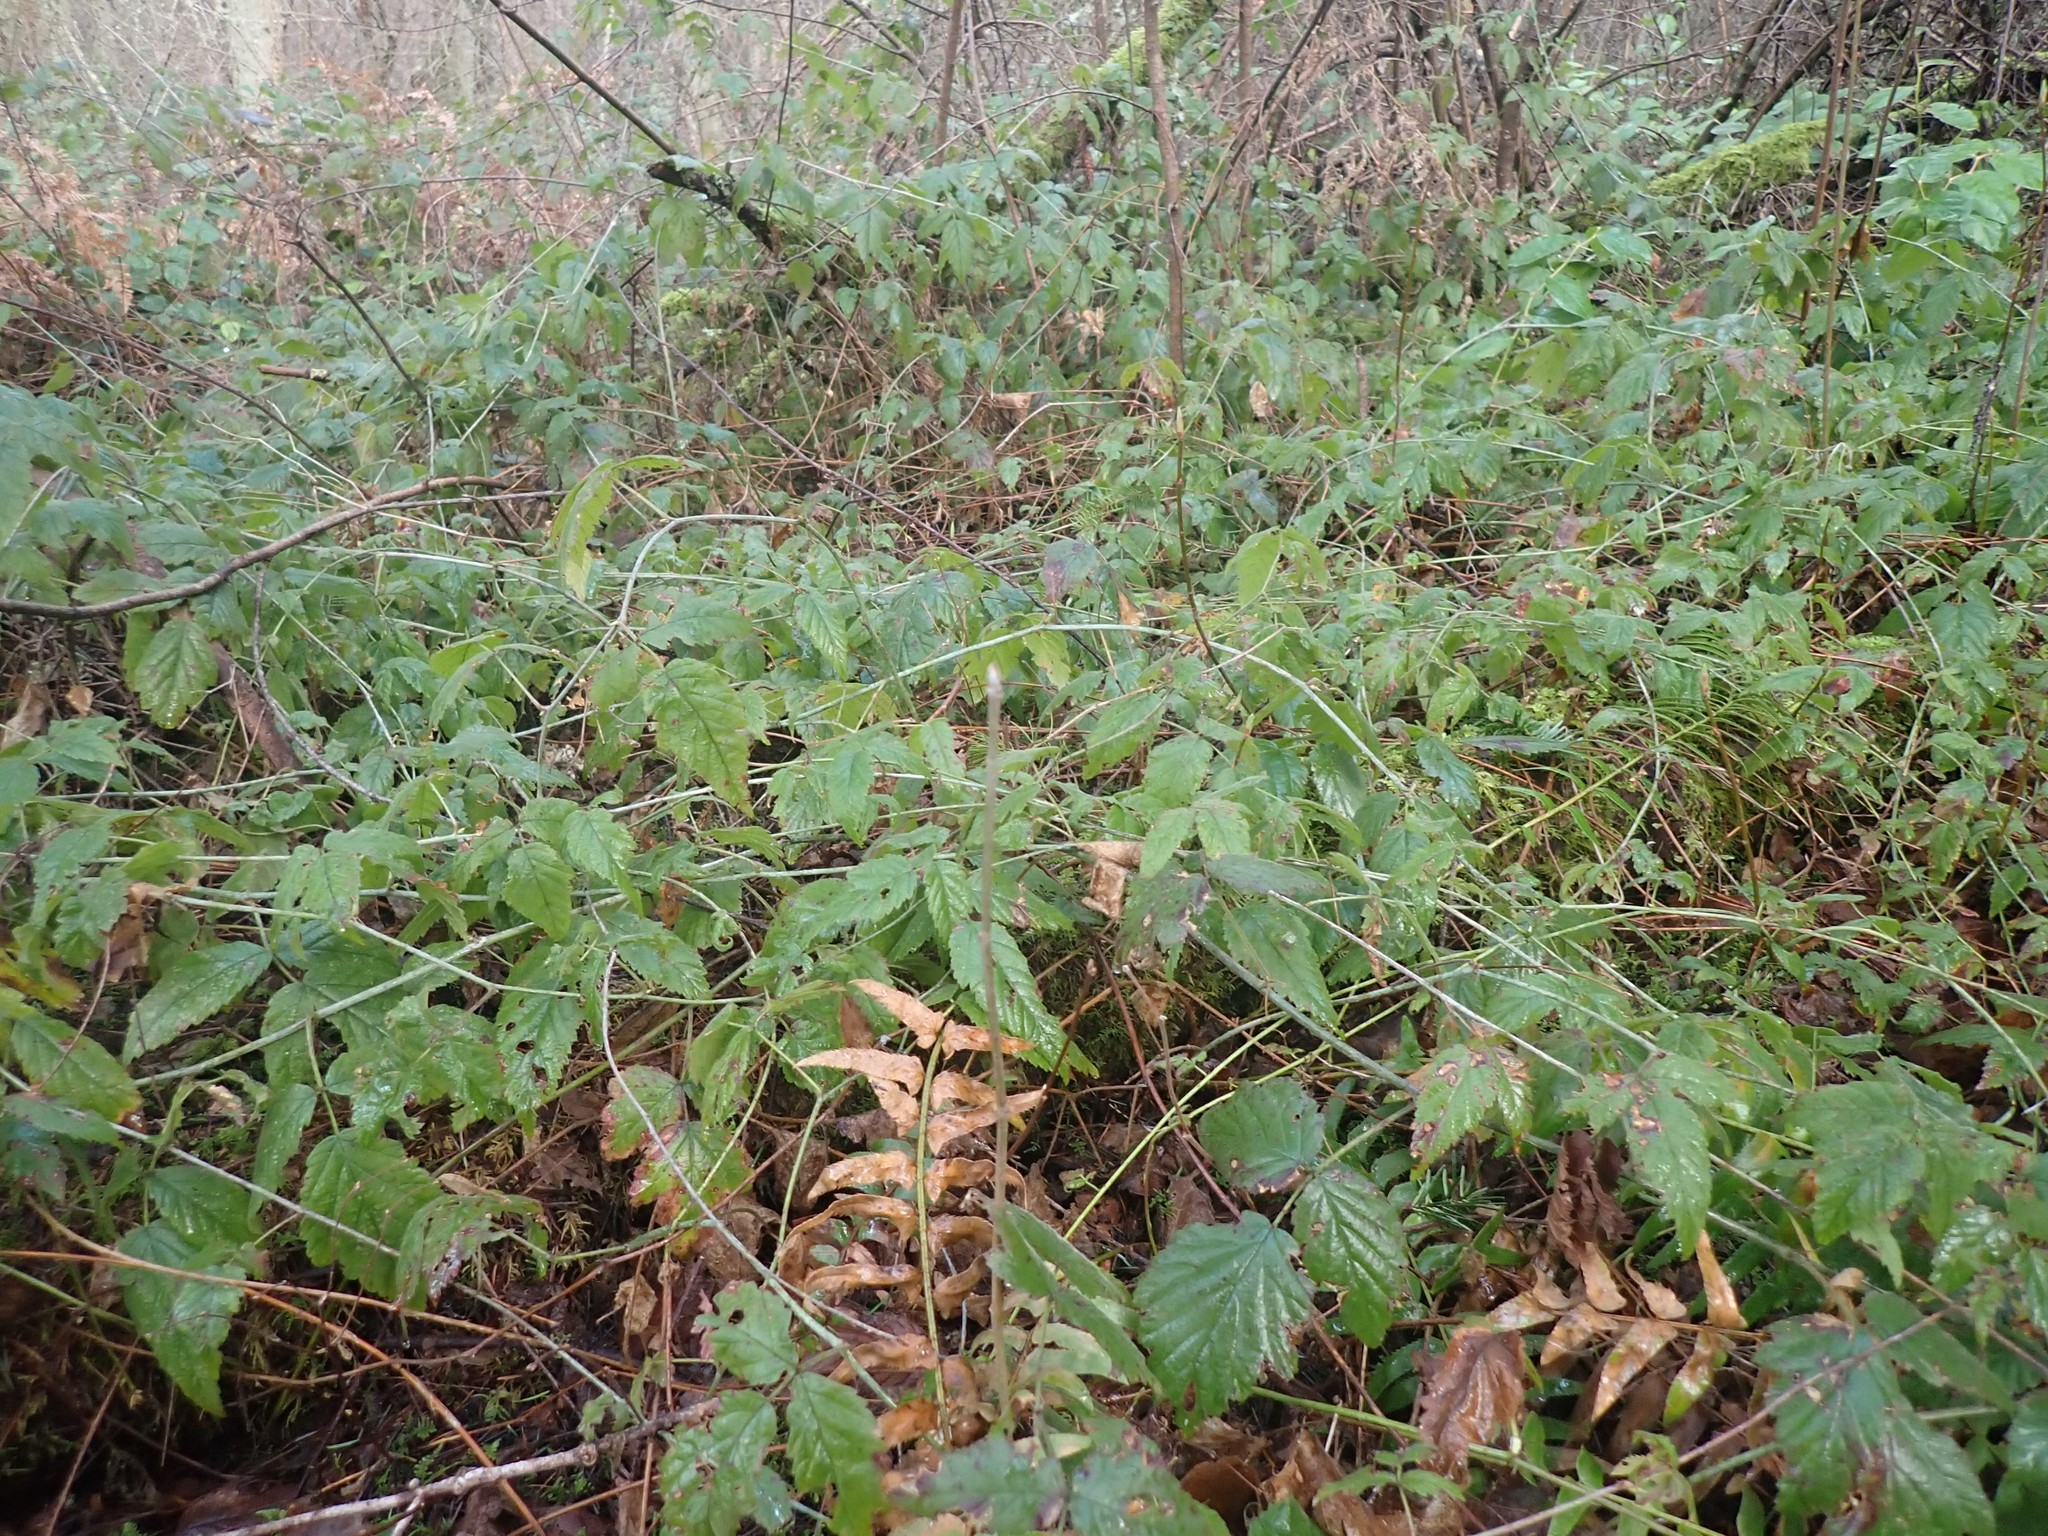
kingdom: Plantae
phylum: Tracheophyta
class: Magnoliopsida
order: Rosales
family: Rosaceae
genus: Rubus
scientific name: Rubus ursinus
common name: Pacific blackberry
